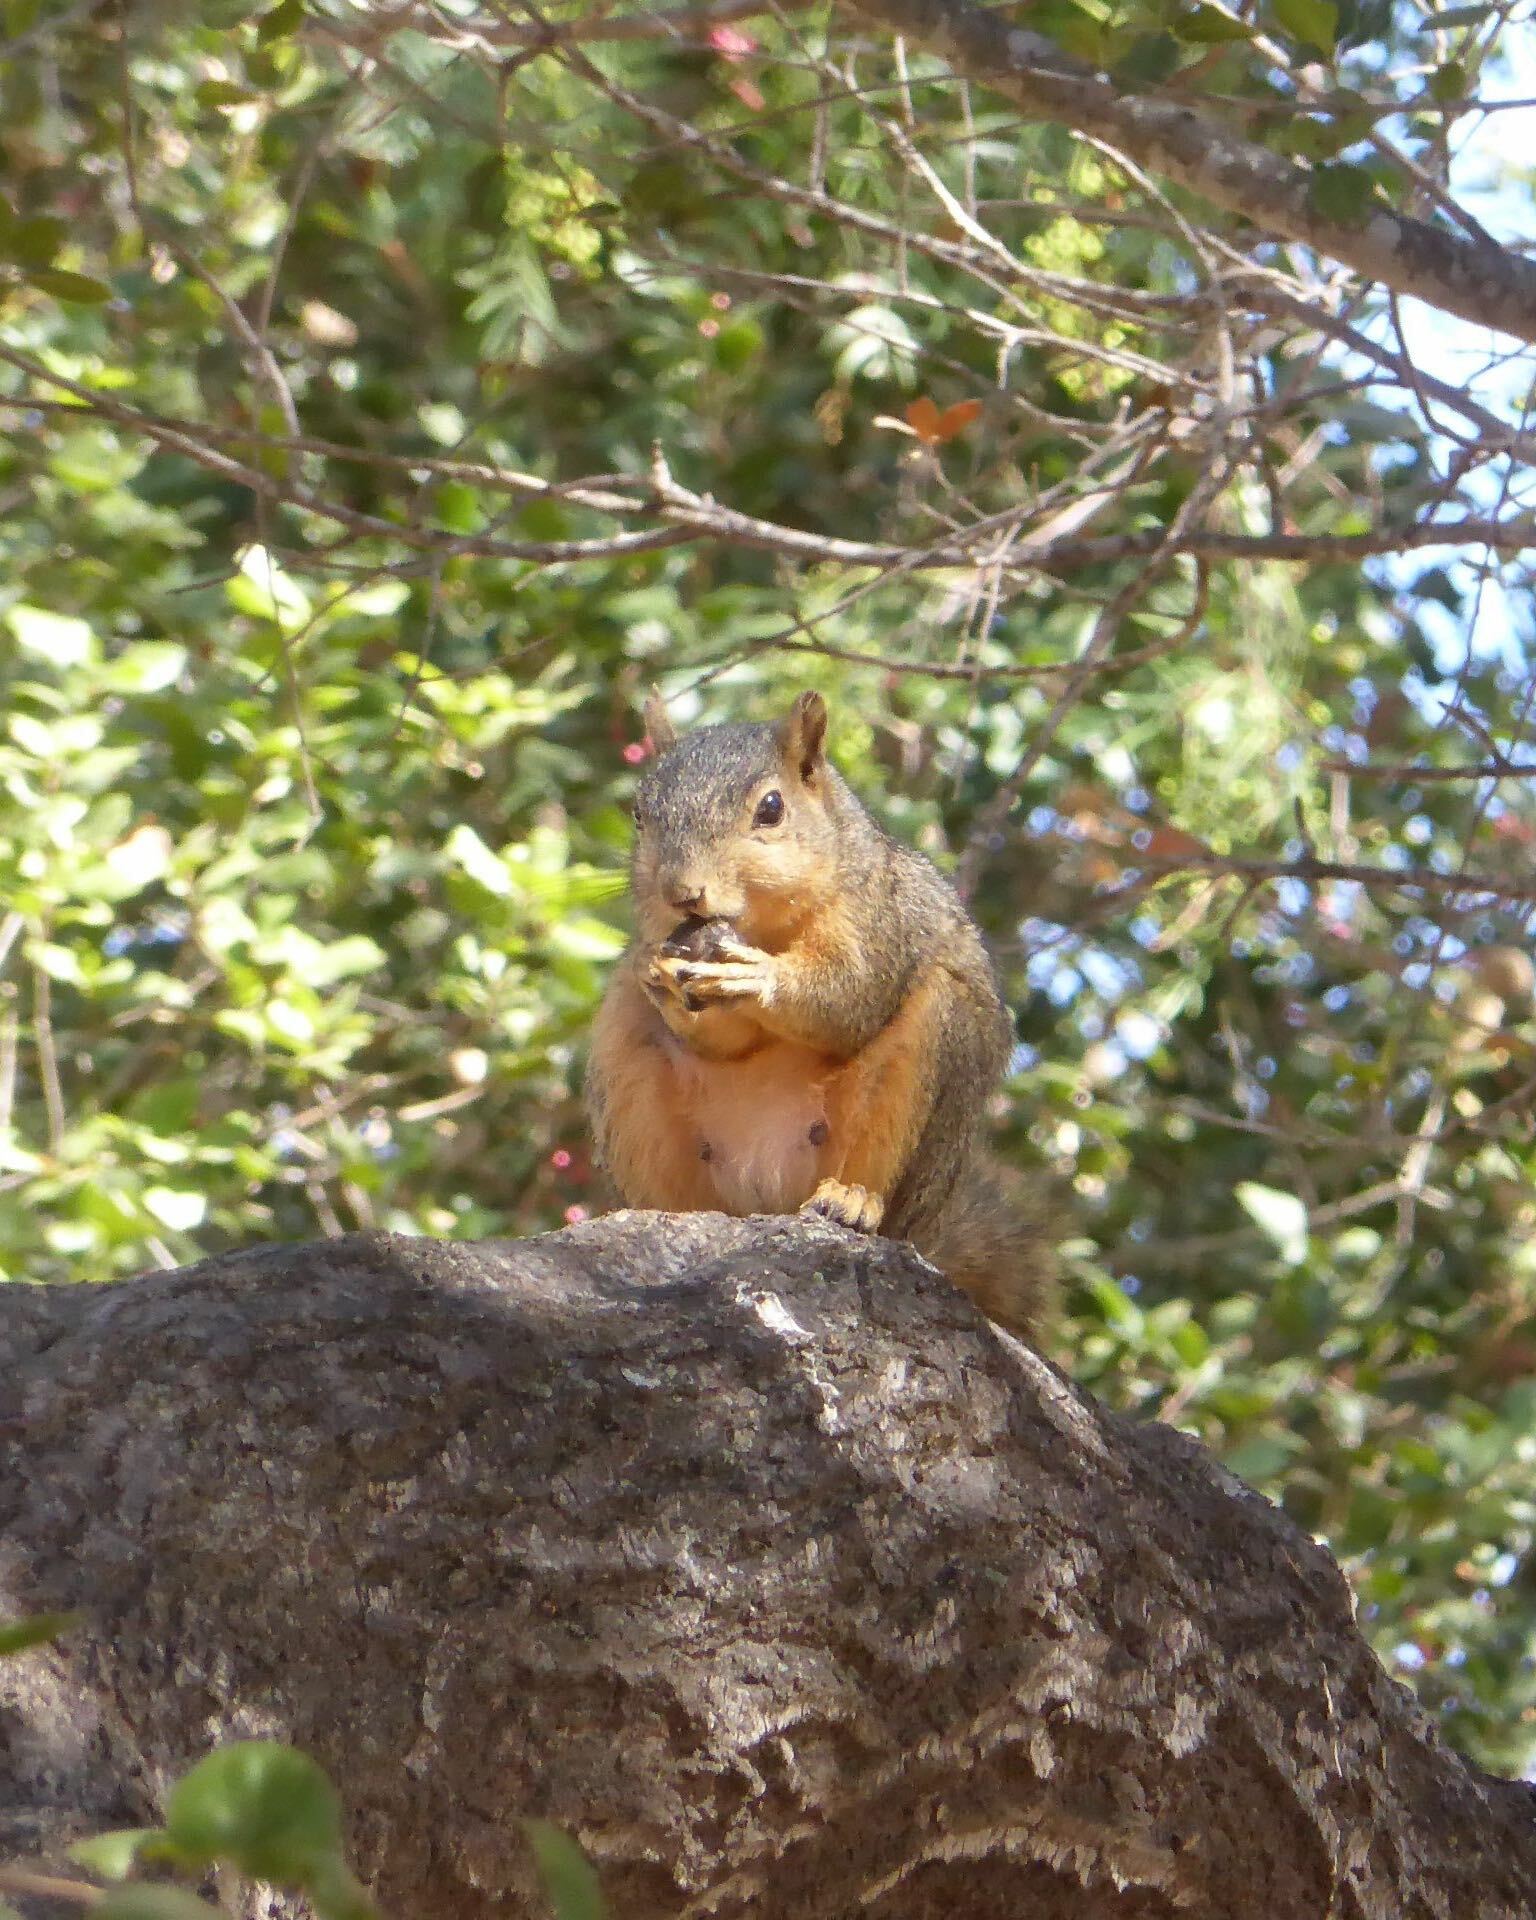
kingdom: Animalia
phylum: Chordata
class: Mammalia
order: Rodentia
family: Sciuridae
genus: Sciurus
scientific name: Sciurus niger
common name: Fox squirrel
